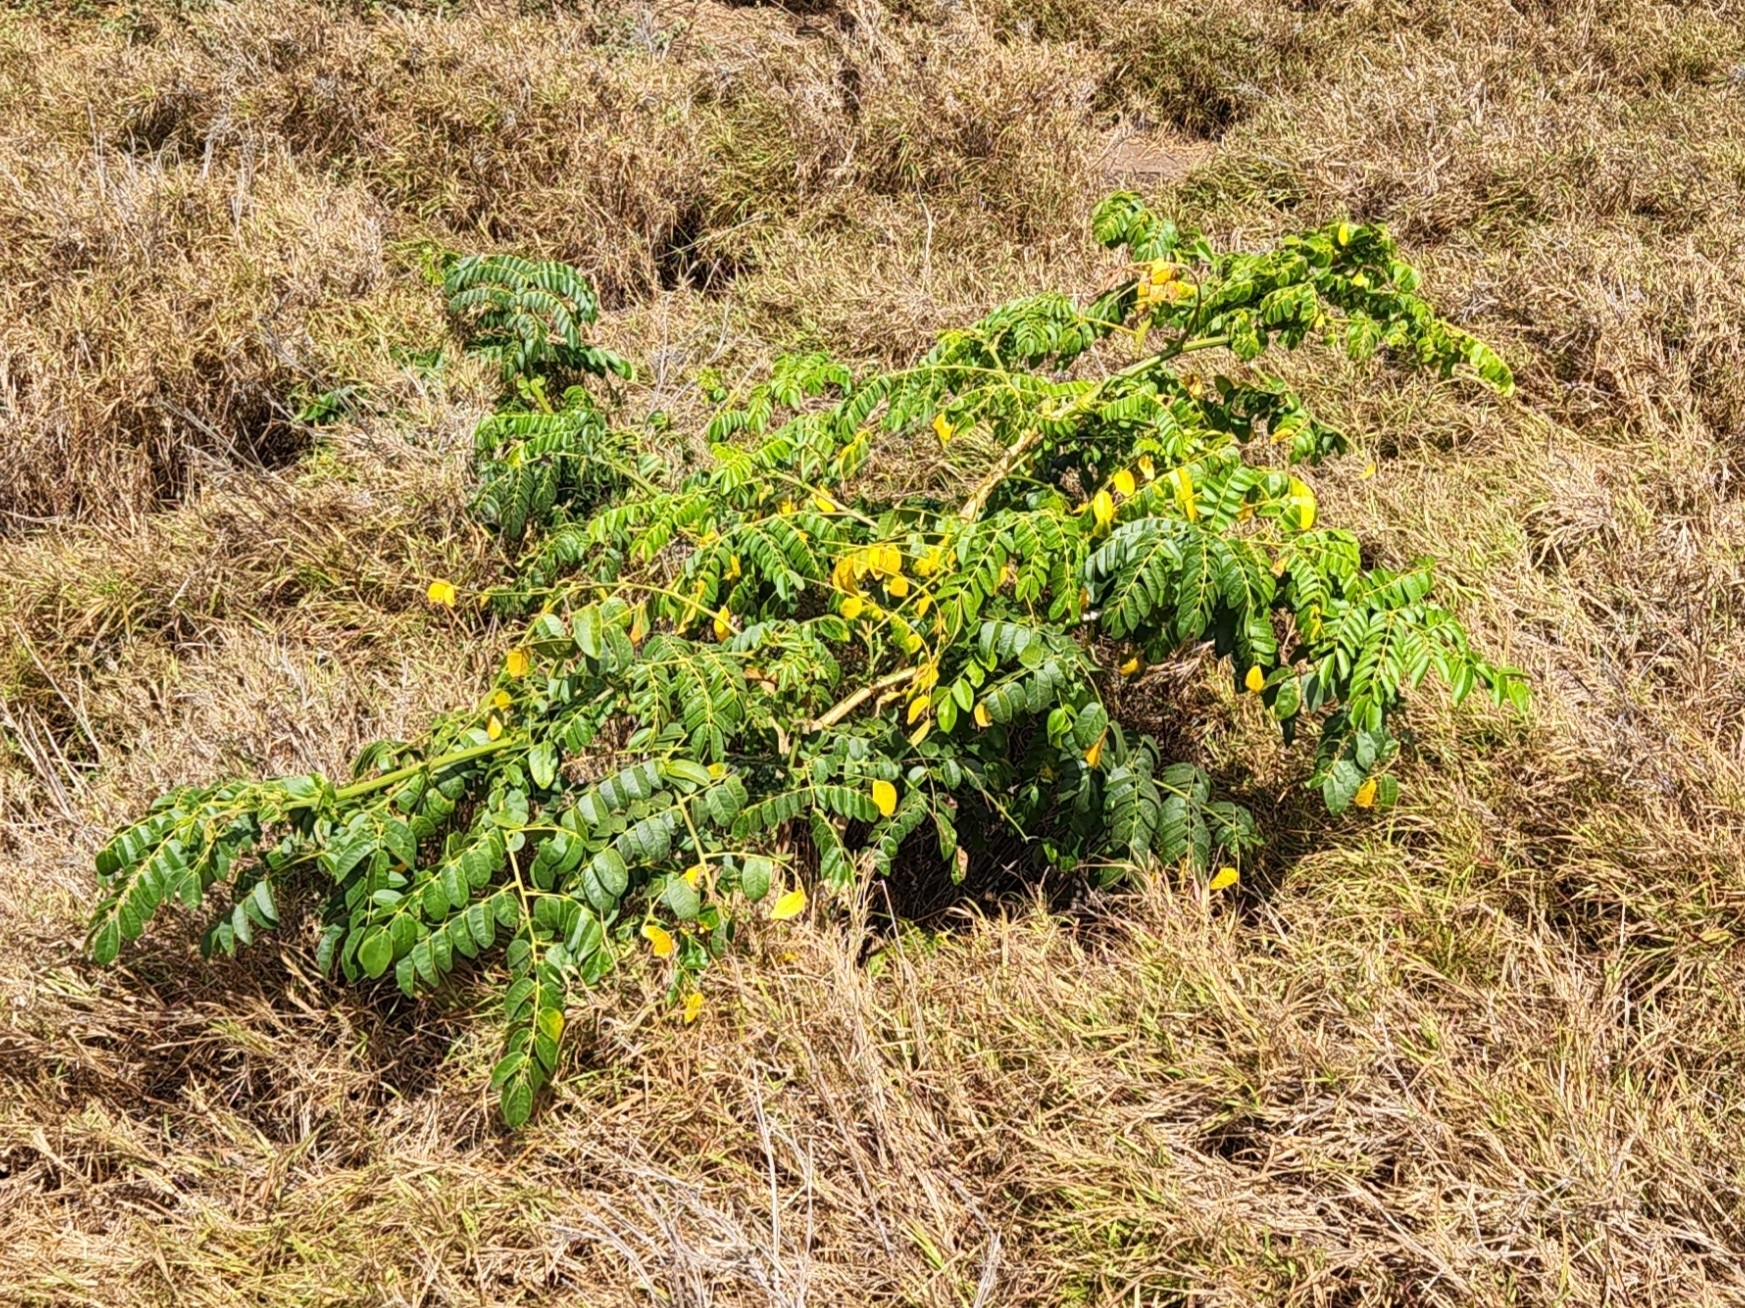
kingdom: Plantae
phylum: Tracheophyta
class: Magnoliopsida
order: Fabales
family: Fabaceae
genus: Guilandina
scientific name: Guilandina bonduc
